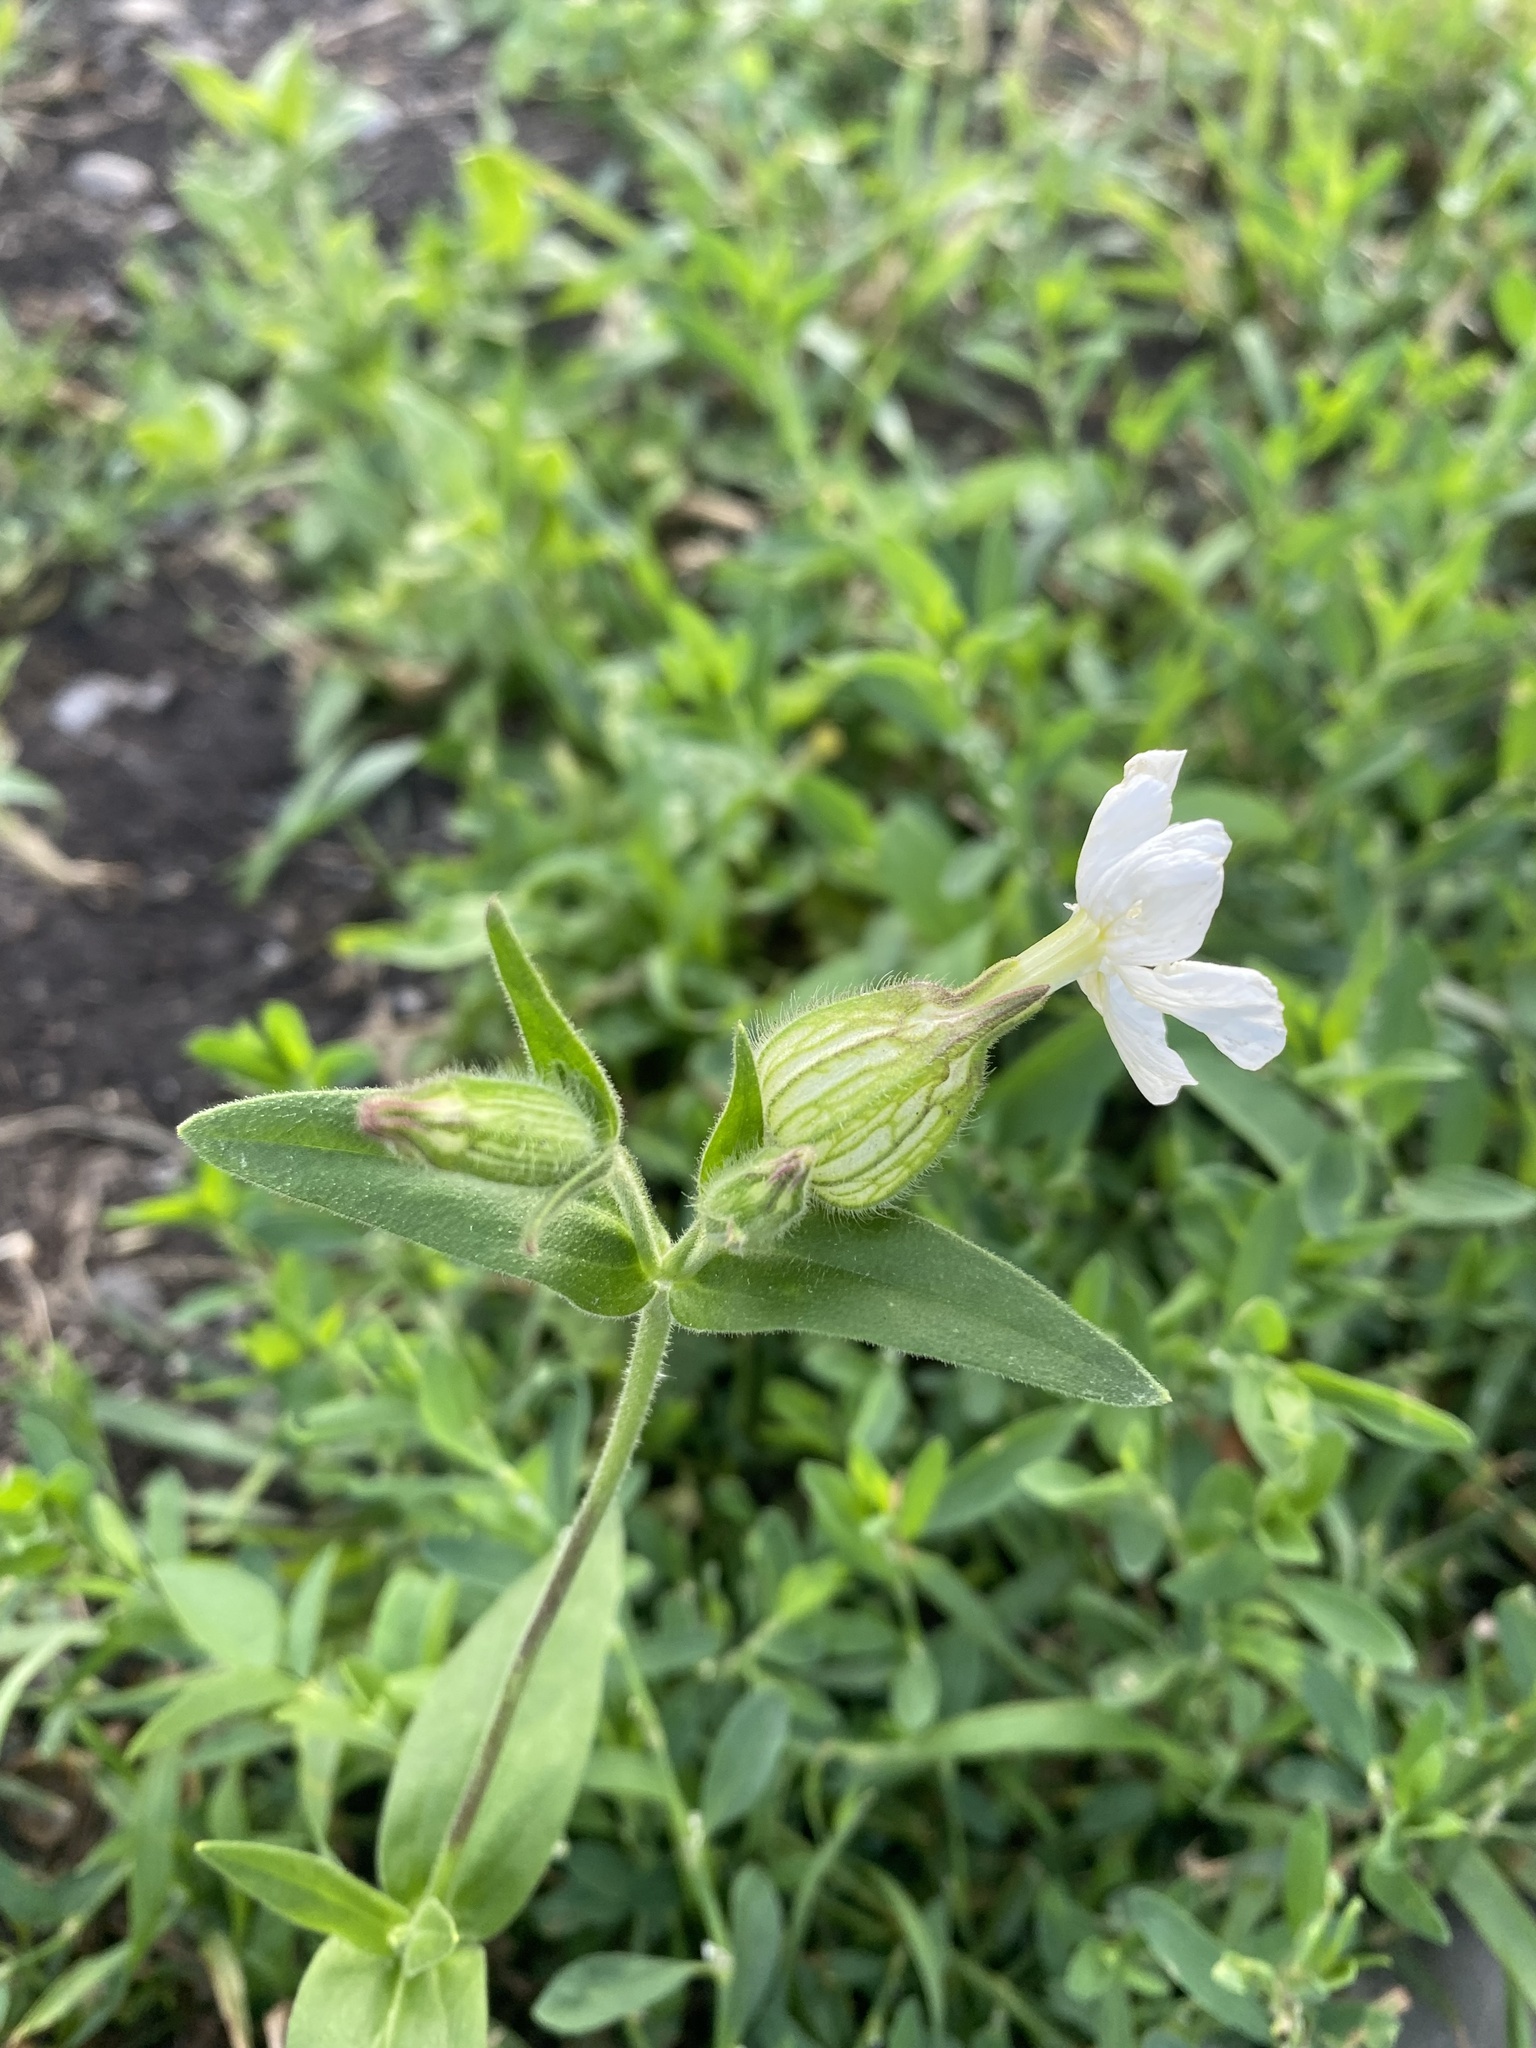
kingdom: Plantae
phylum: Tracheophyta
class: Magnoliopsida
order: Caryophyllales
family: Caryophyllaceae
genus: Silene
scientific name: Silene latifolia
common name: White campion
